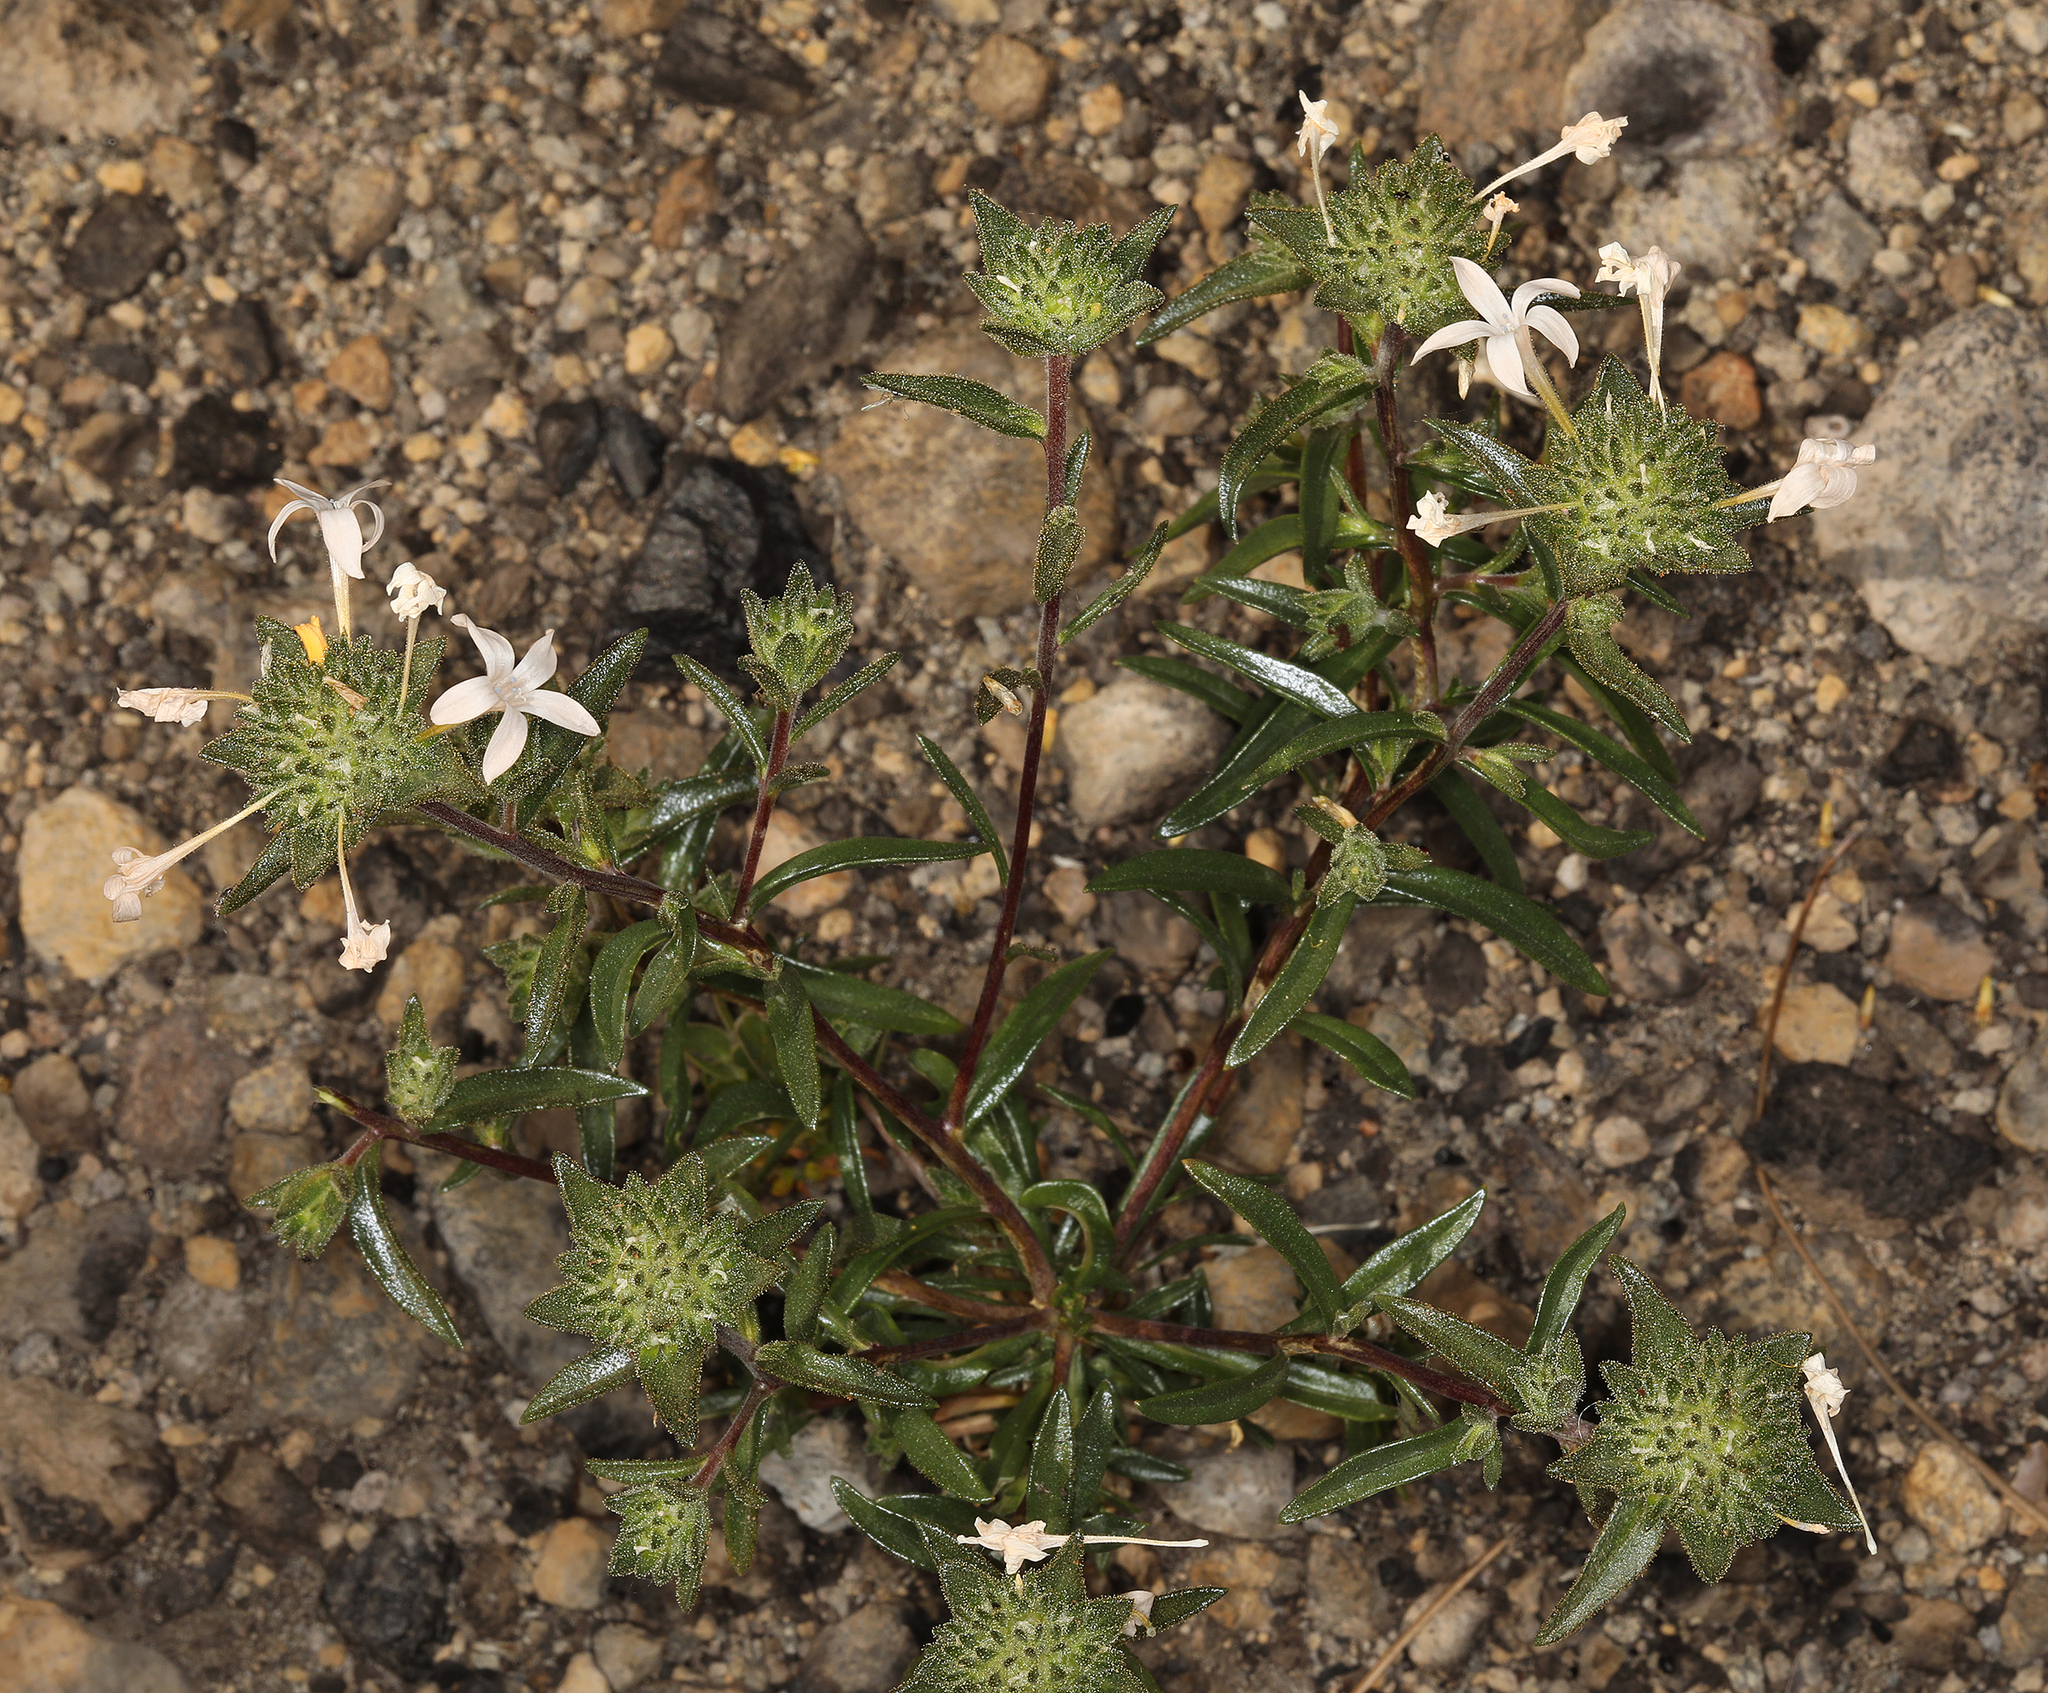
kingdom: Plantae
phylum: Tracheophyta
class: Magnoliopsida
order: Ericales
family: Polemoniaceae
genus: Collomia
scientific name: Collomia grandiflora
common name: California strawflower
